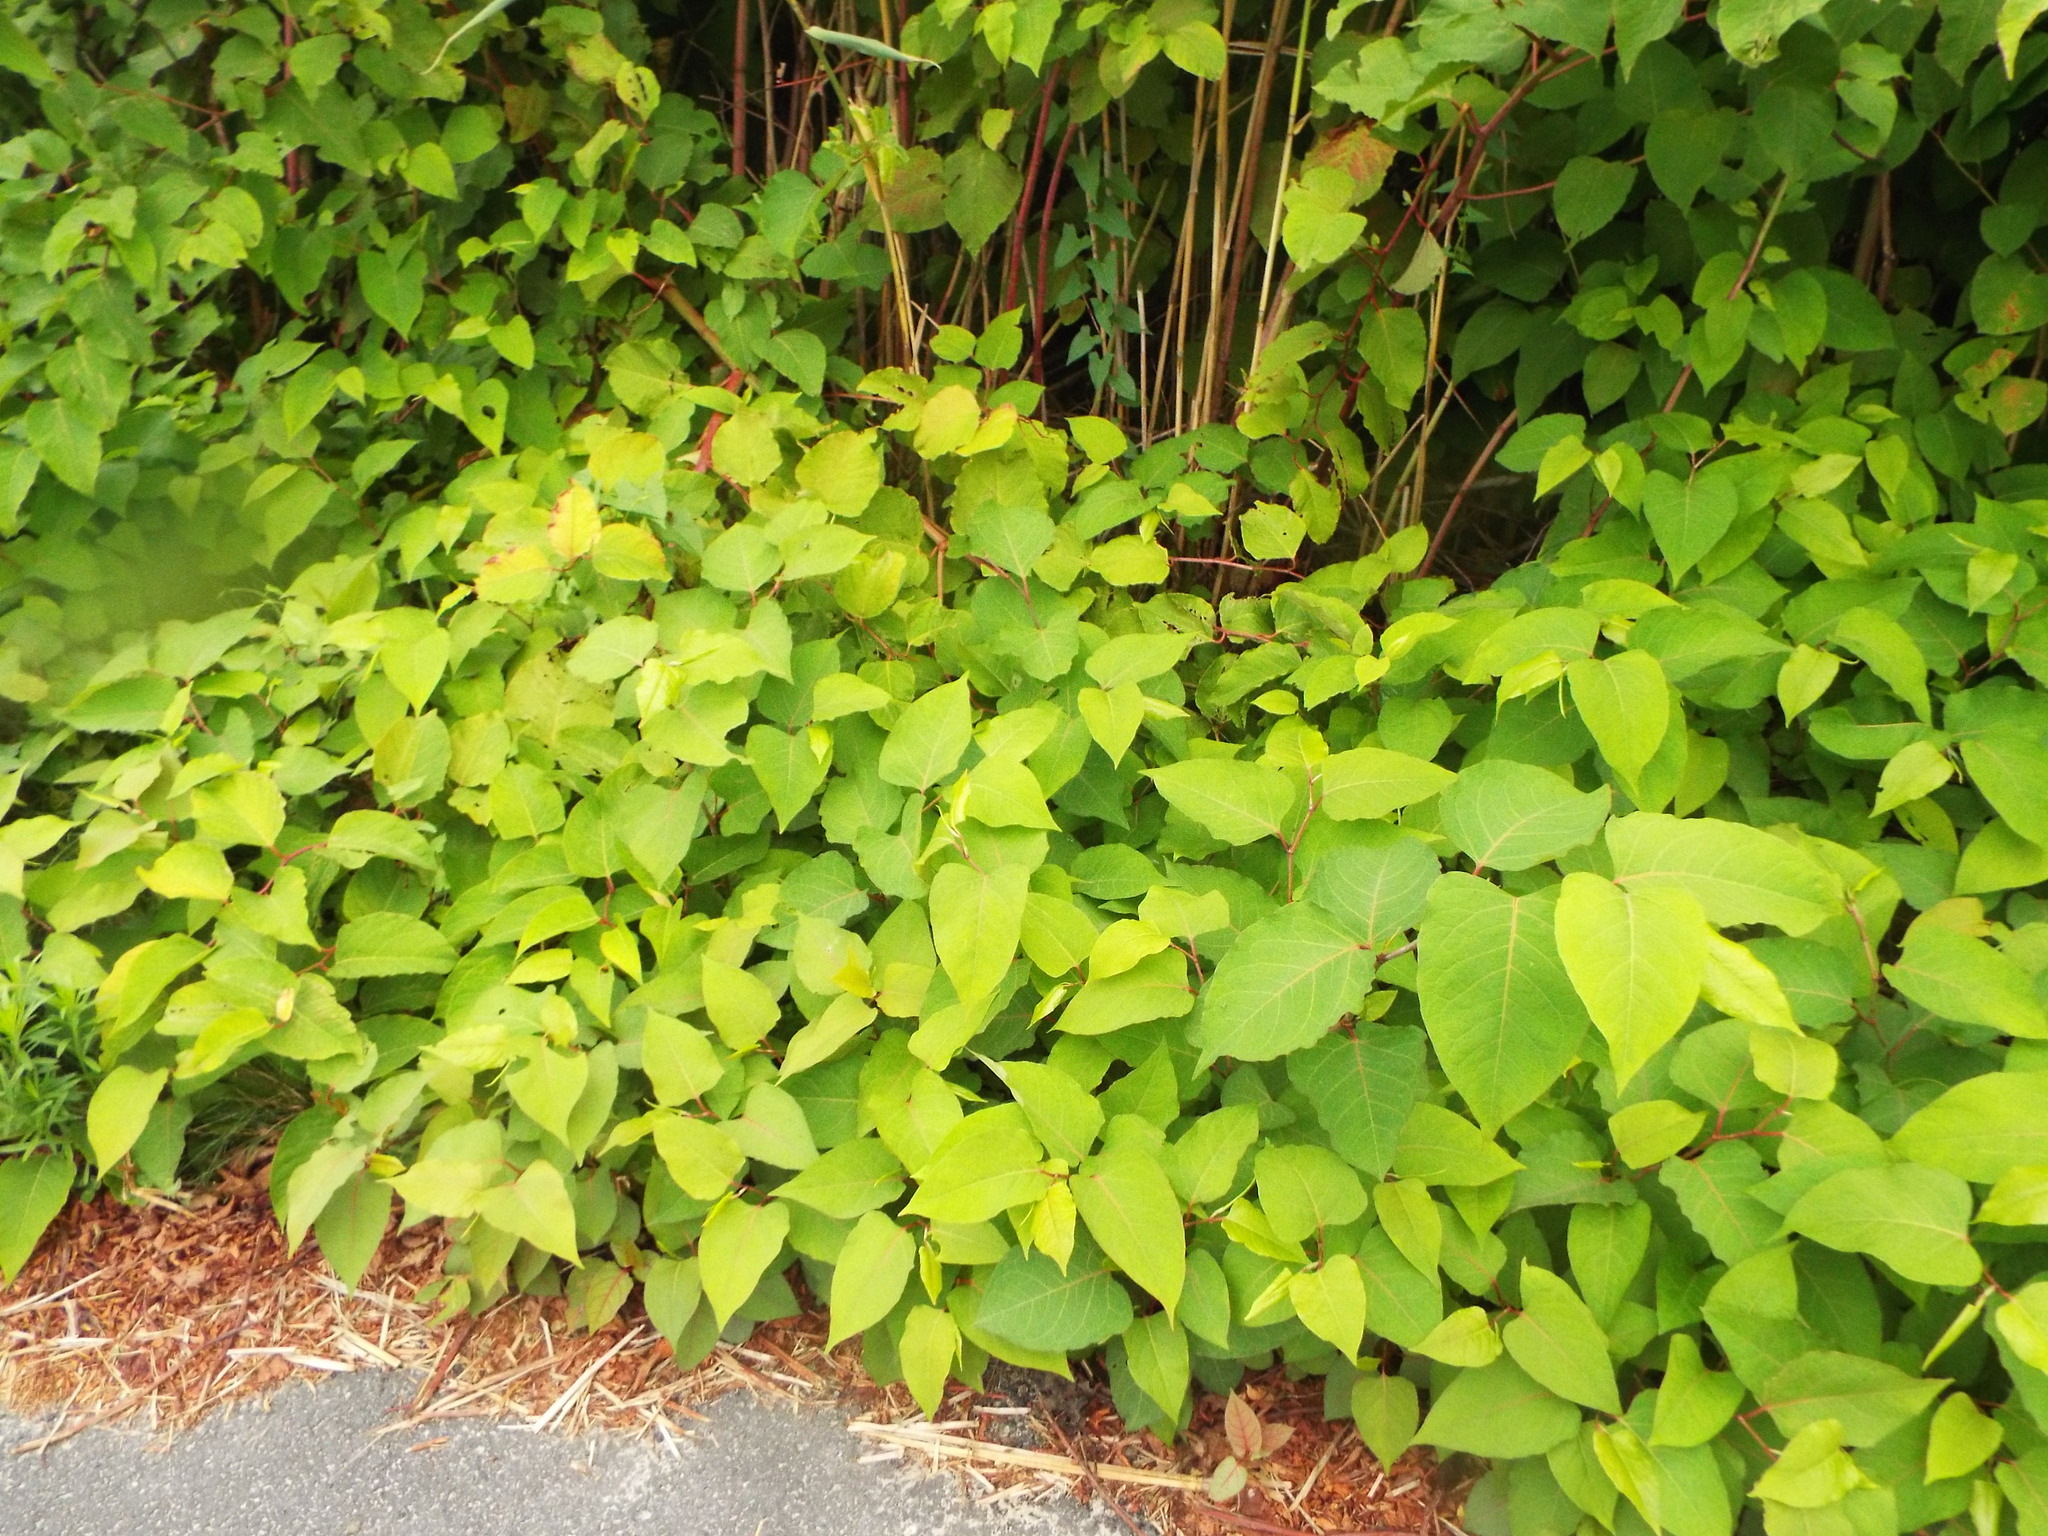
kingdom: Plantae
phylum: Tracheophyta
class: Magnoliopsida
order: Caryophyllales
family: Polygonaceae
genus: Reynoutria
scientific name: Reynoutria japonica
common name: Japanese knotweed
